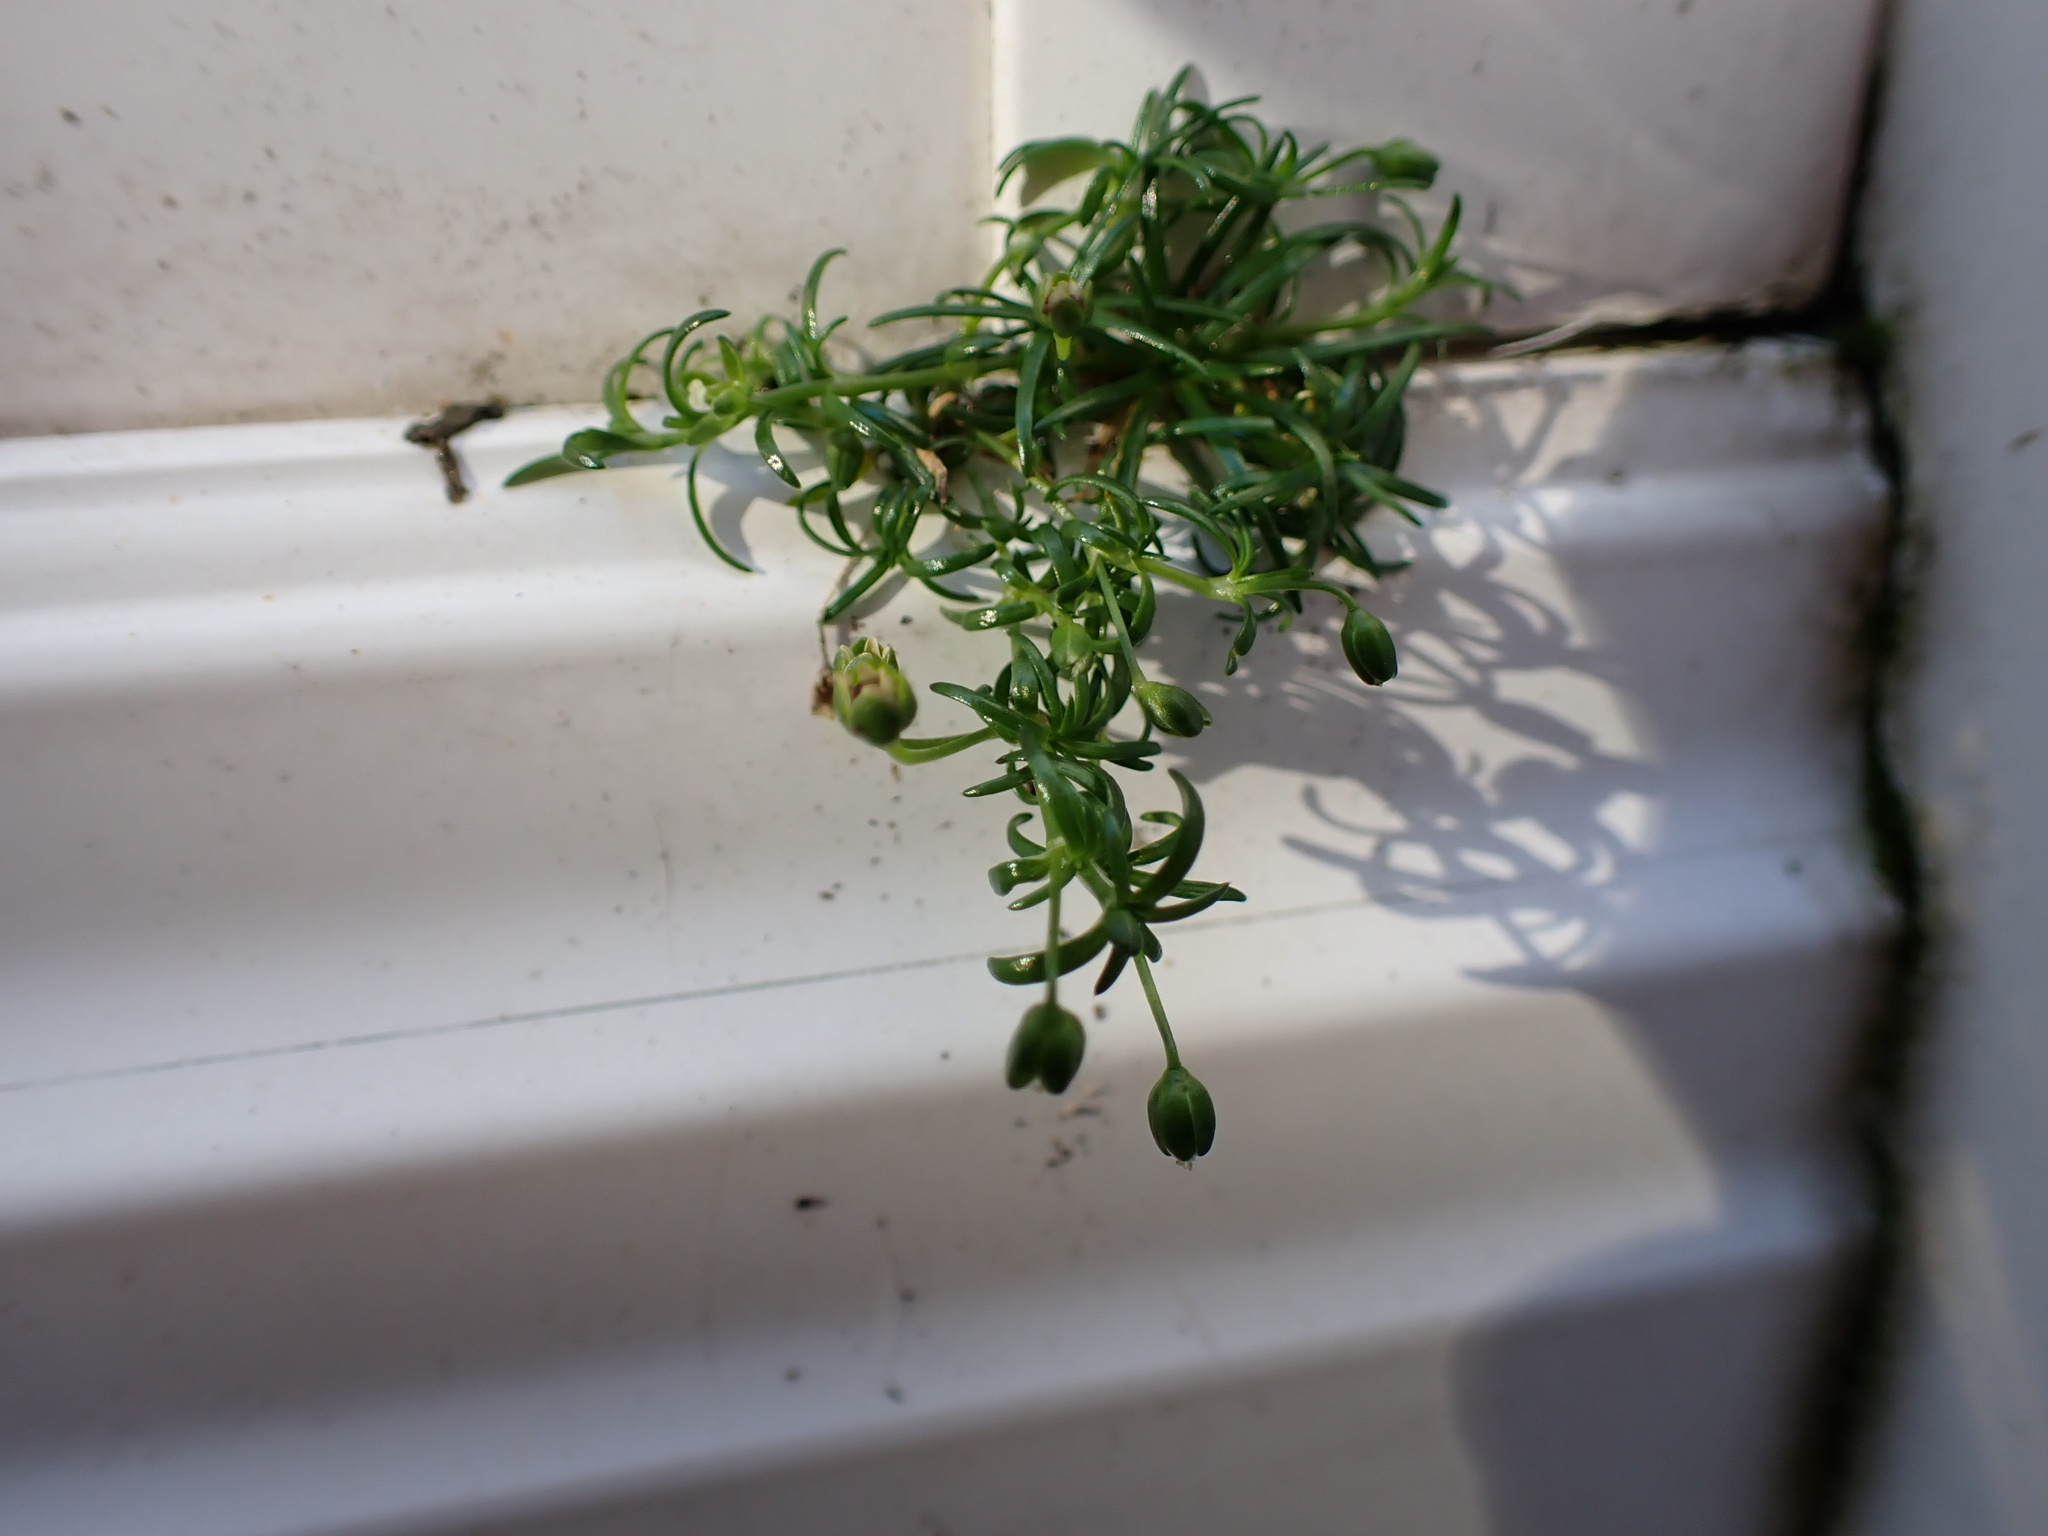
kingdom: Plantae
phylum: Tracheophyta
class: Magnoliopsida
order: Caryophyllales
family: Caryophyllaceae
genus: Sagina
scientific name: Sagina procumbens
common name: Procumbent pearlwort
